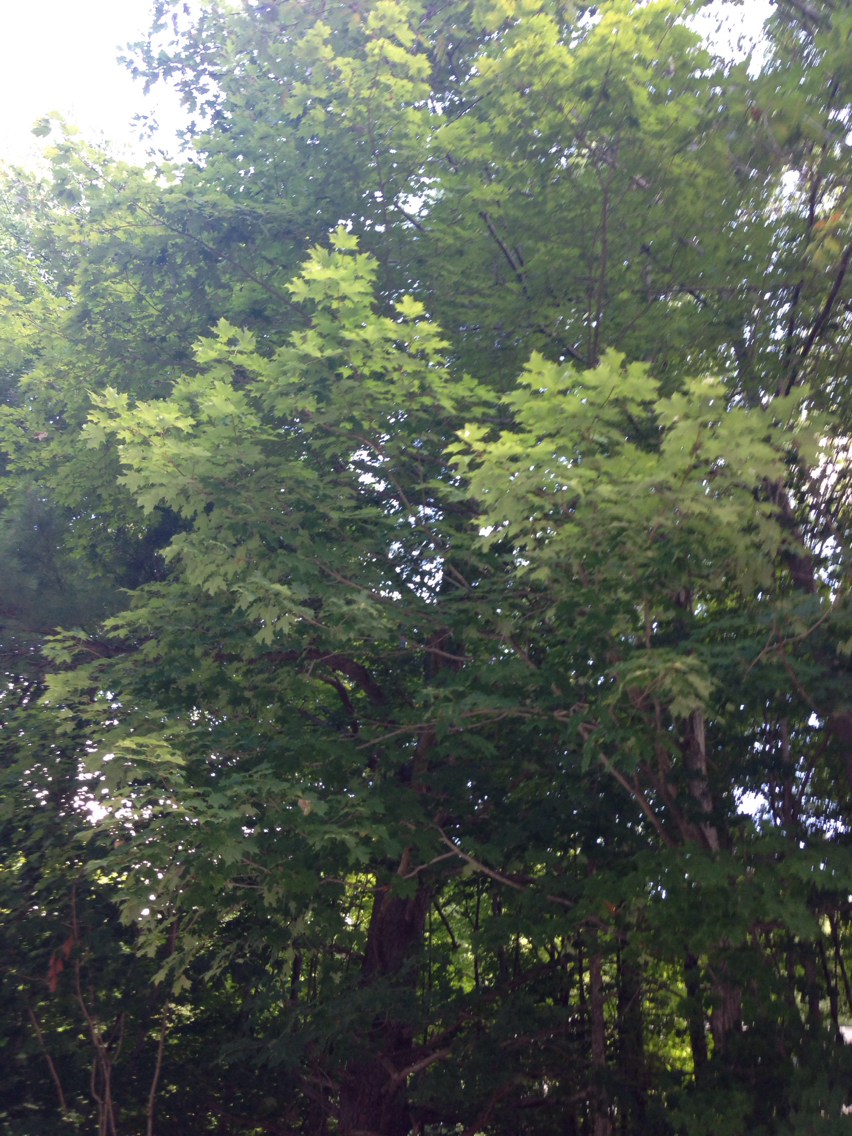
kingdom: Plantae
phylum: Tracheophyta
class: Magnoliopsida
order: Sapindales
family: Sapindaceae
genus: Acer
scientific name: Acer saccharum
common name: Sugar maple
